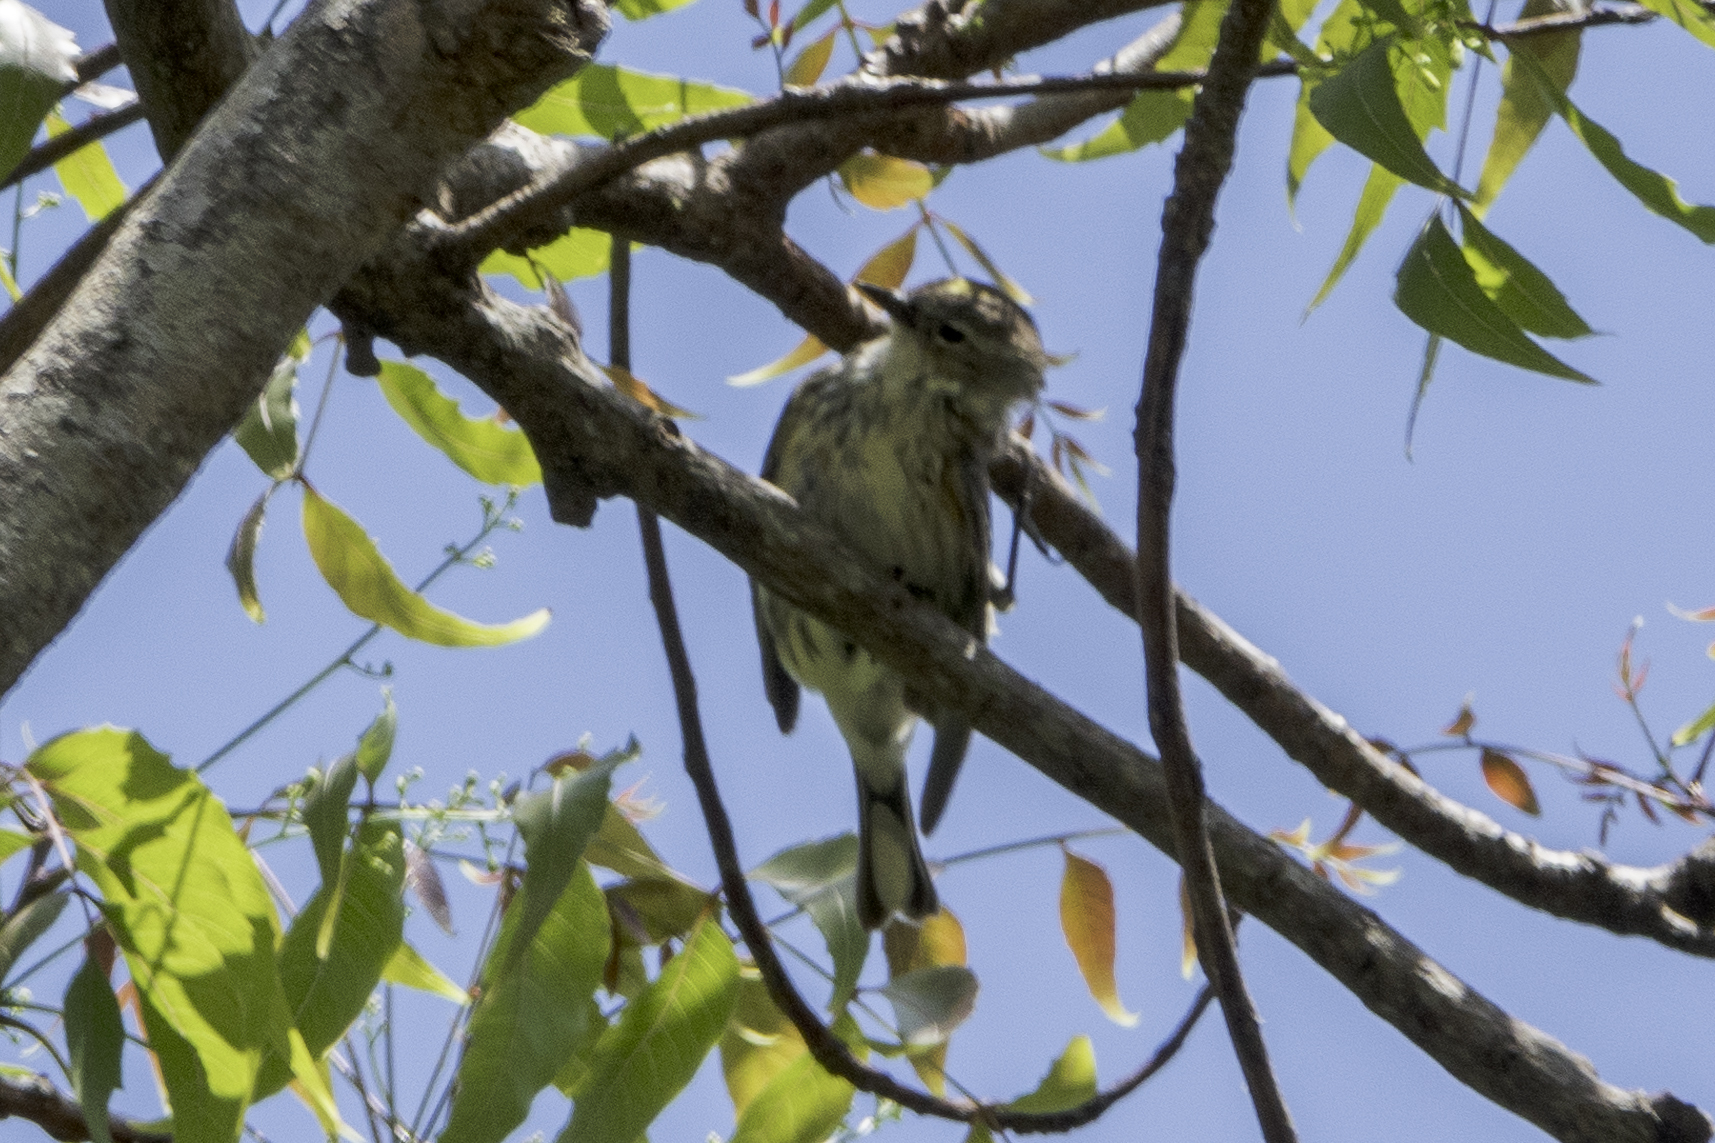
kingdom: Animalia
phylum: Chordata
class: Aves
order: Passeriformes
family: Parulidae
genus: Setophaga
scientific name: Setophaga coronata
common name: Myrtle warbler
